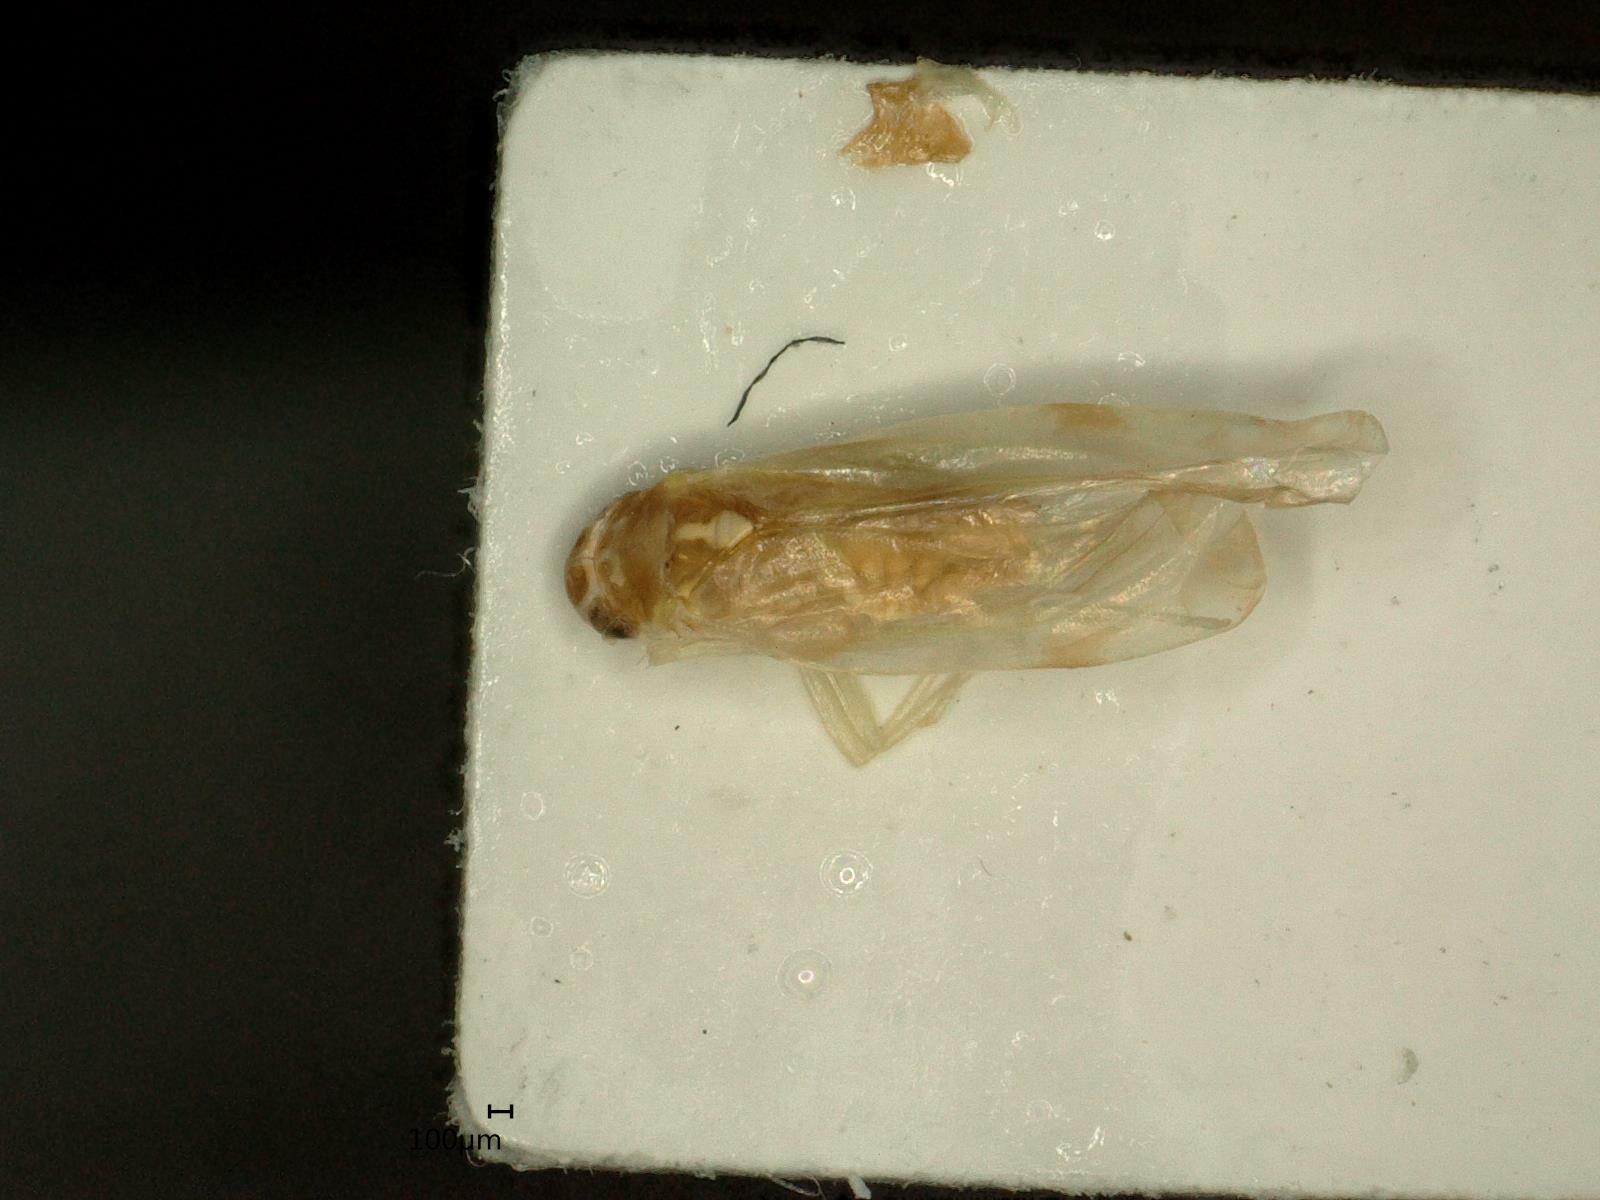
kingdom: Animalia
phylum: Arthropoda
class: Insecta
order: Hemiptera
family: Cicadellidae
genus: Eupteryx
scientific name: Eupteryx aurata
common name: Leafhopper
